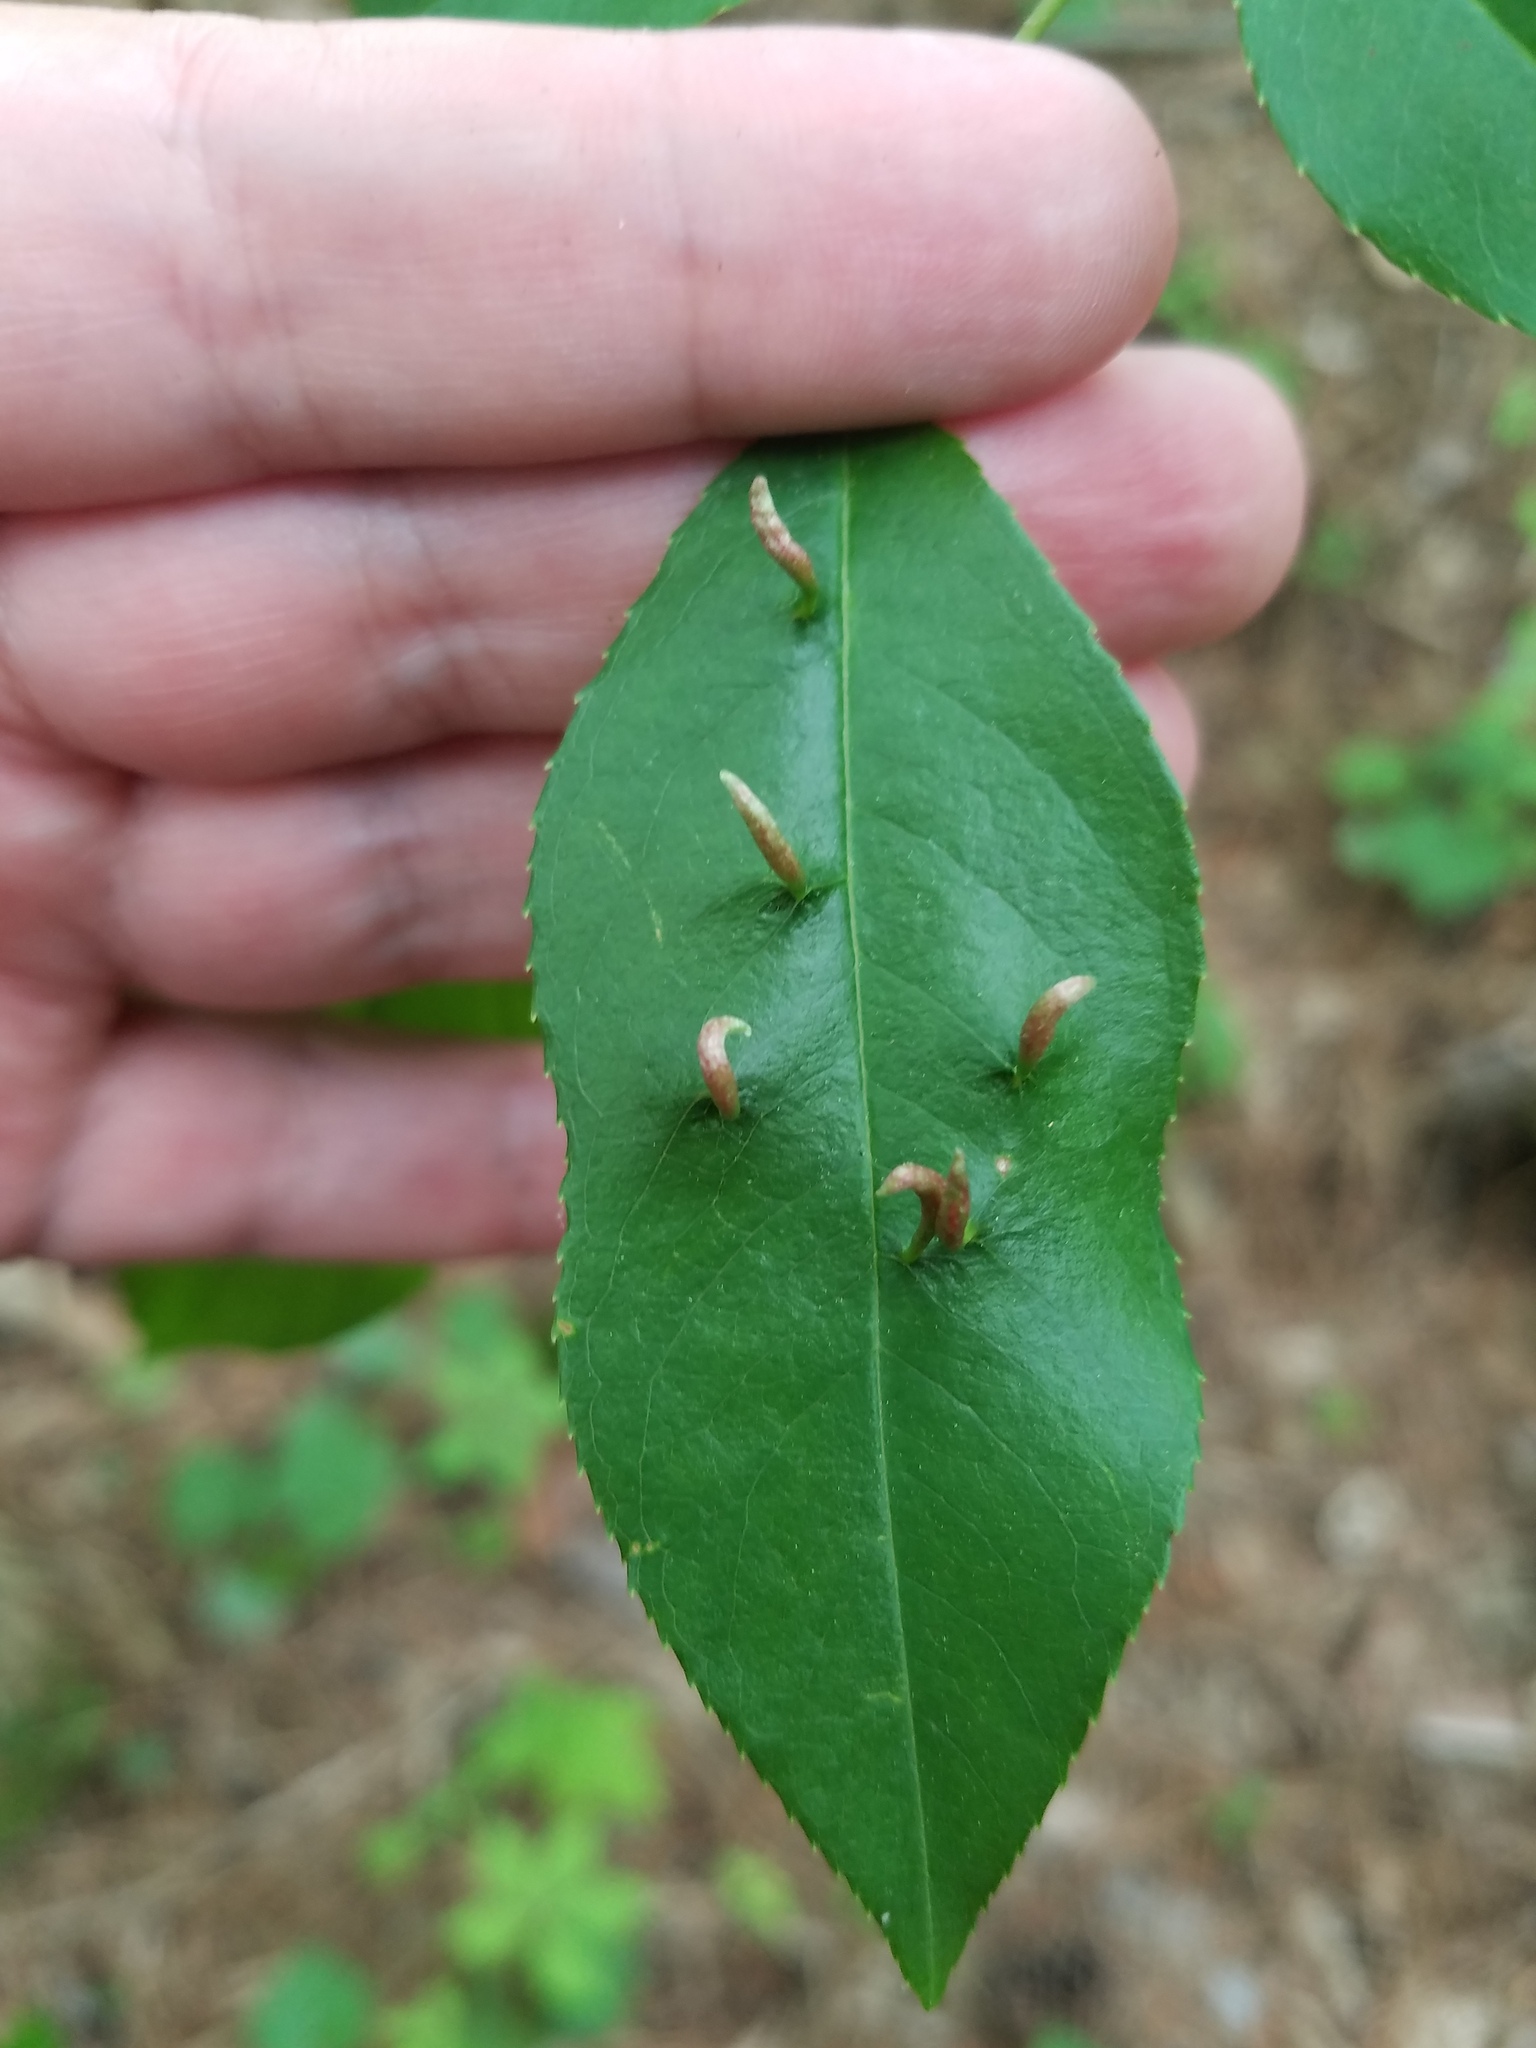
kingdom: Animalia
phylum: Arthropoda
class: Arachnida
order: Trombidiformes
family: Eriophyidae
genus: Eriophyes
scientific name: Eriophyes
